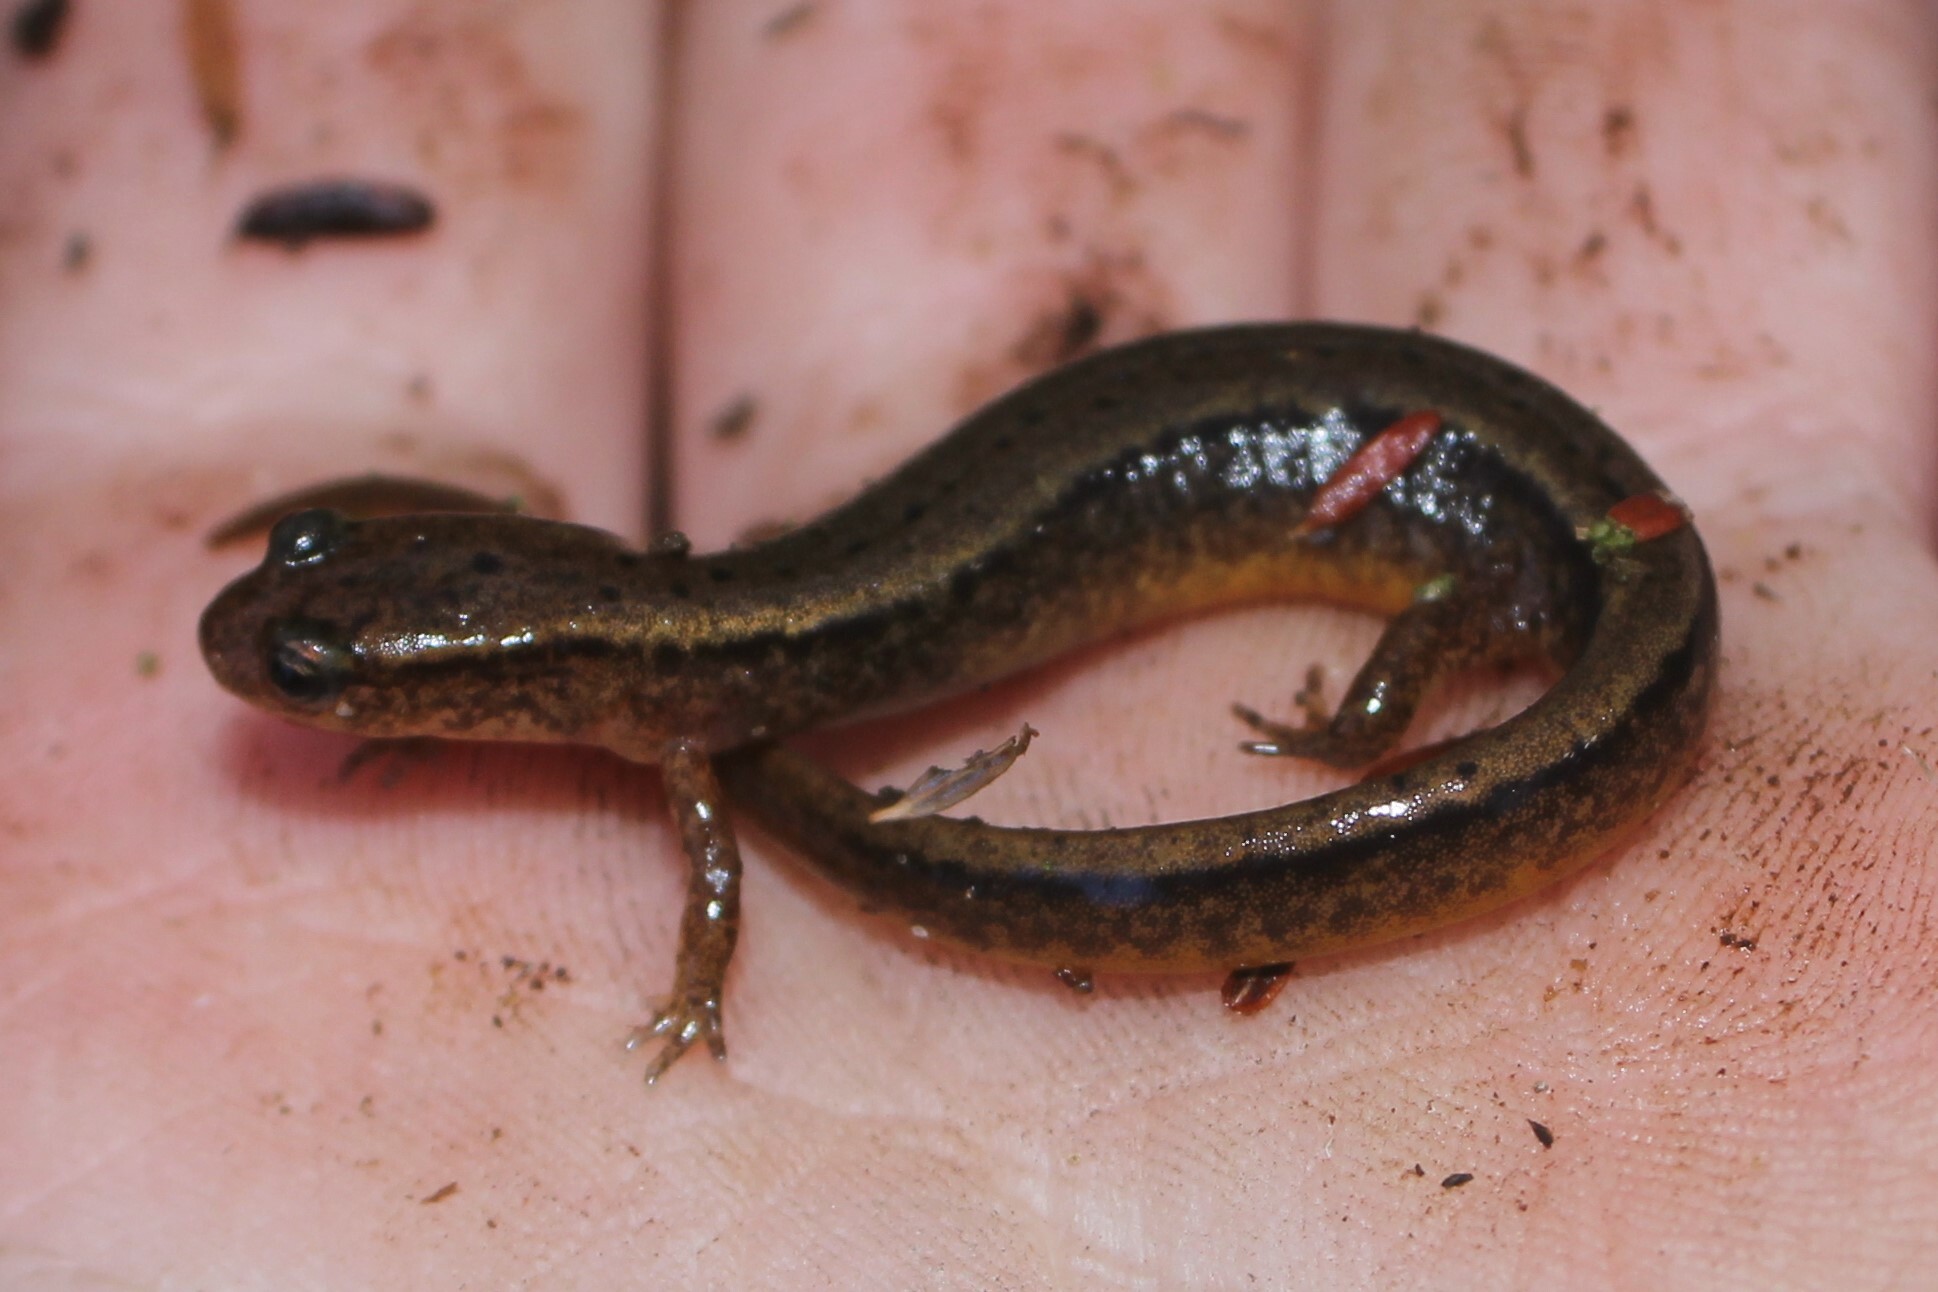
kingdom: Animalia
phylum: Chordata
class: Amphibia
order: Caudata
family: Plethodontidae
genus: Eurycea
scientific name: Eurycea bislineata
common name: Northern two-lined salamander
